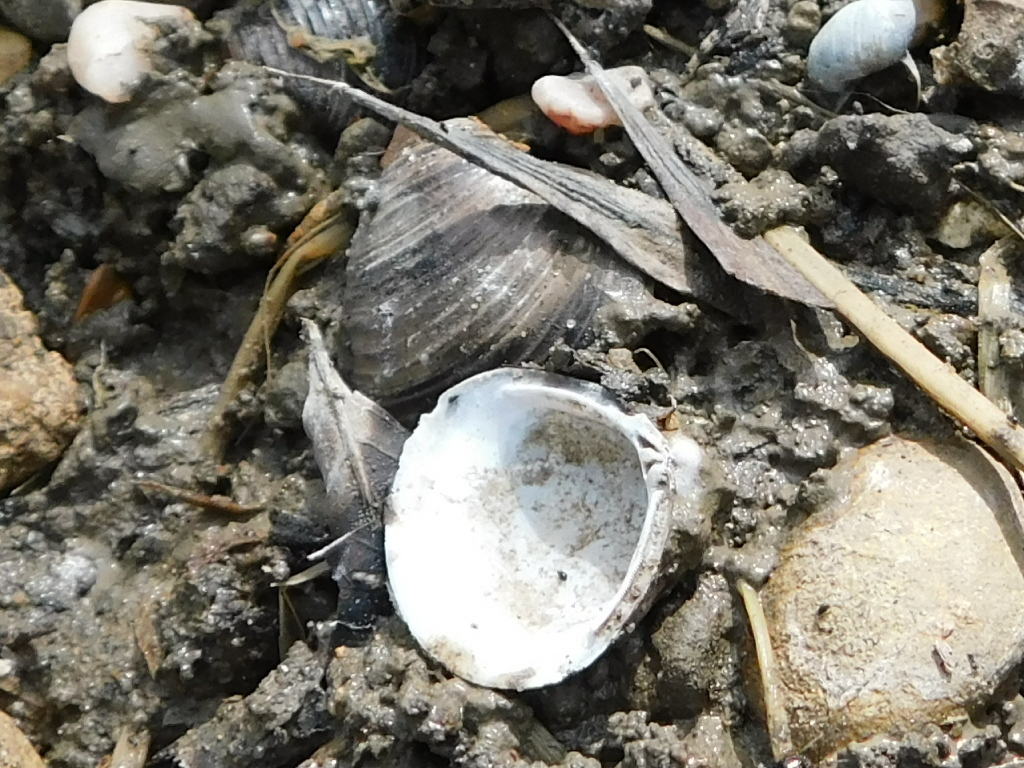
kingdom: Animalia
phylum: Mollusca
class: Bivalvia
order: Venerida
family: Cyrenidae
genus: Corbicula
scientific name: Corbicula fluminea
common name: Asian clam
